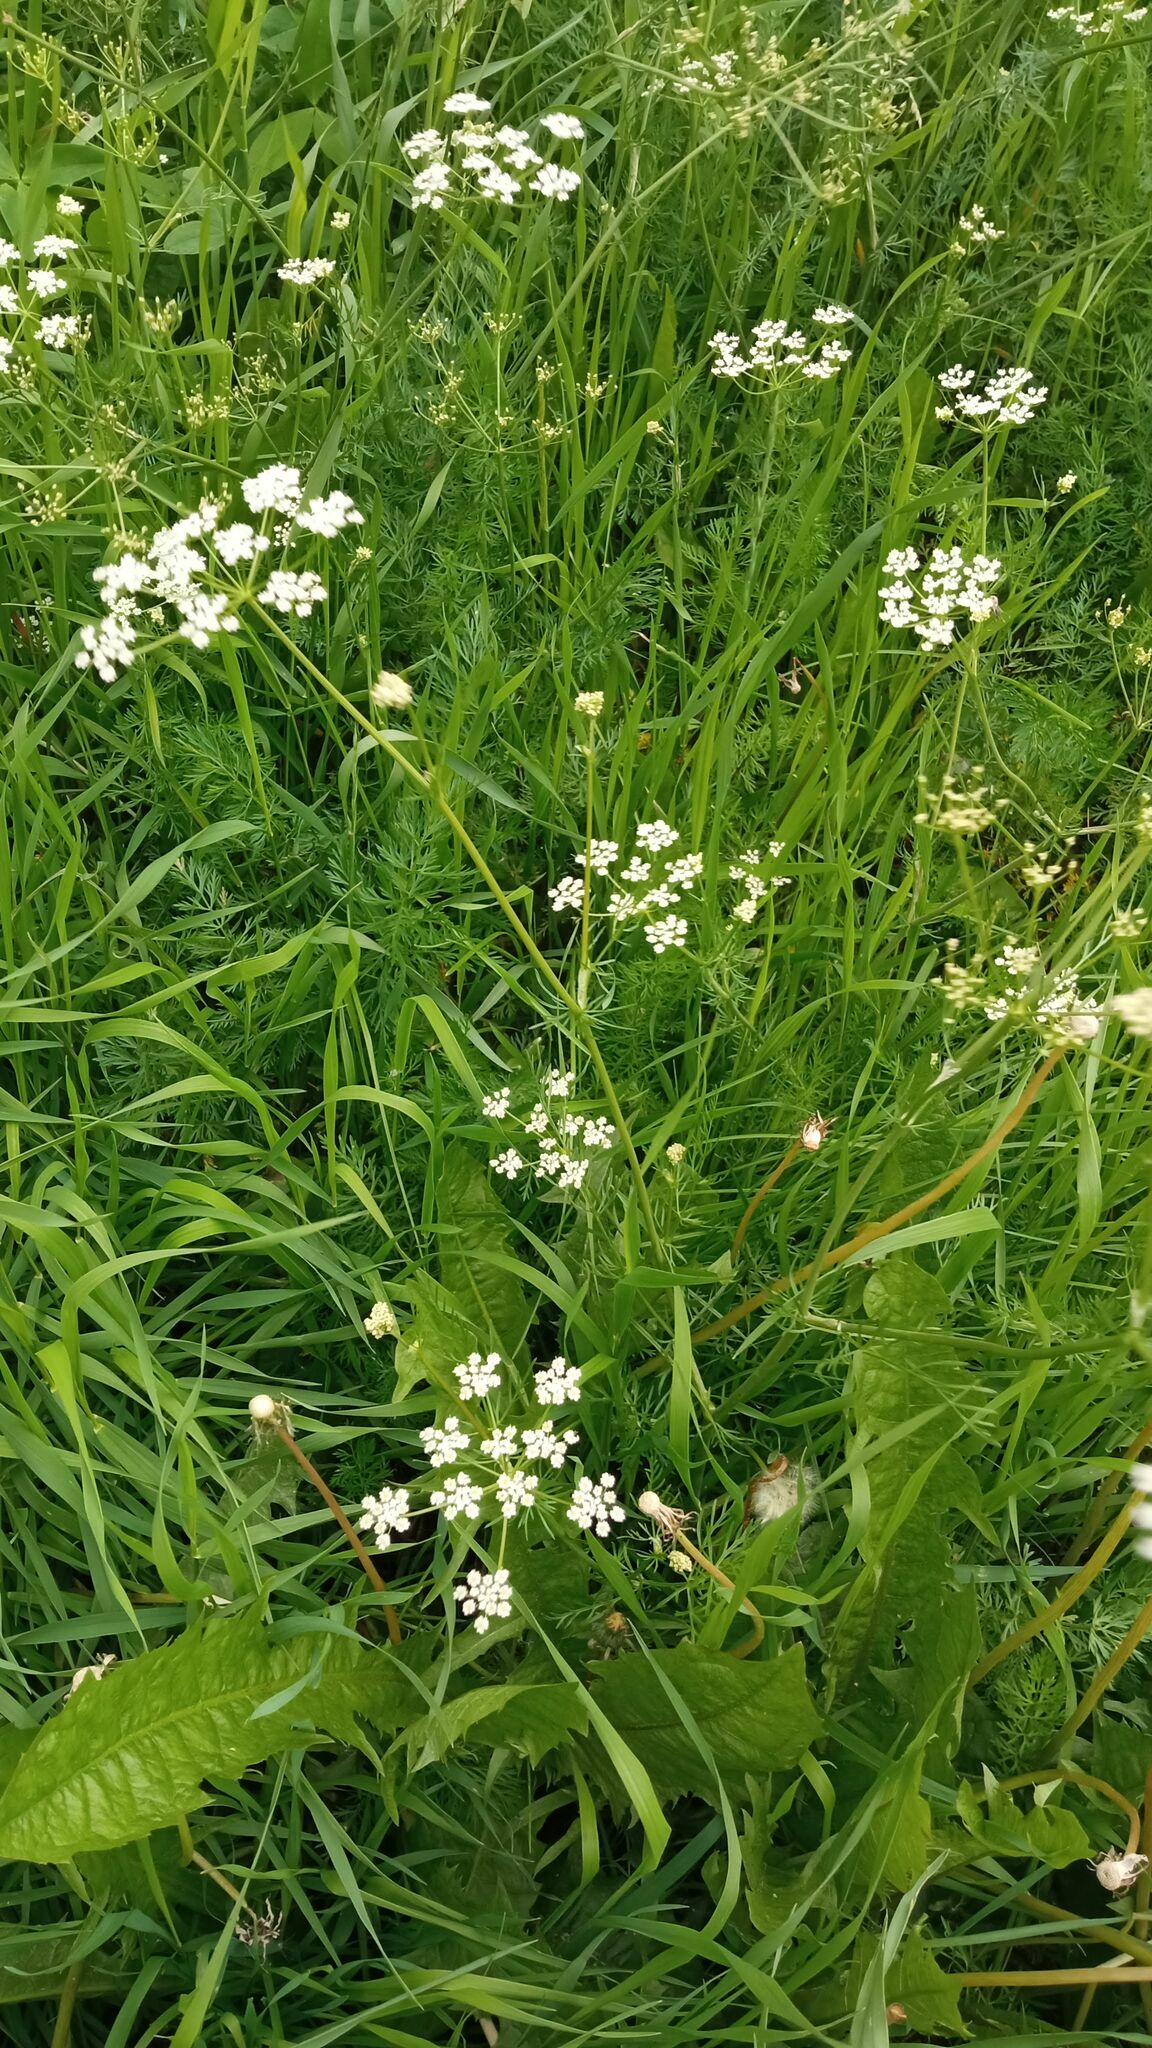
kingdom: Plantae
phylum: Tracheophyta
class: Magnoliopsida
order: Apiales
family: Apiaceae
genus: Carum
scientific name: Carum carvi
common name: Caraway
